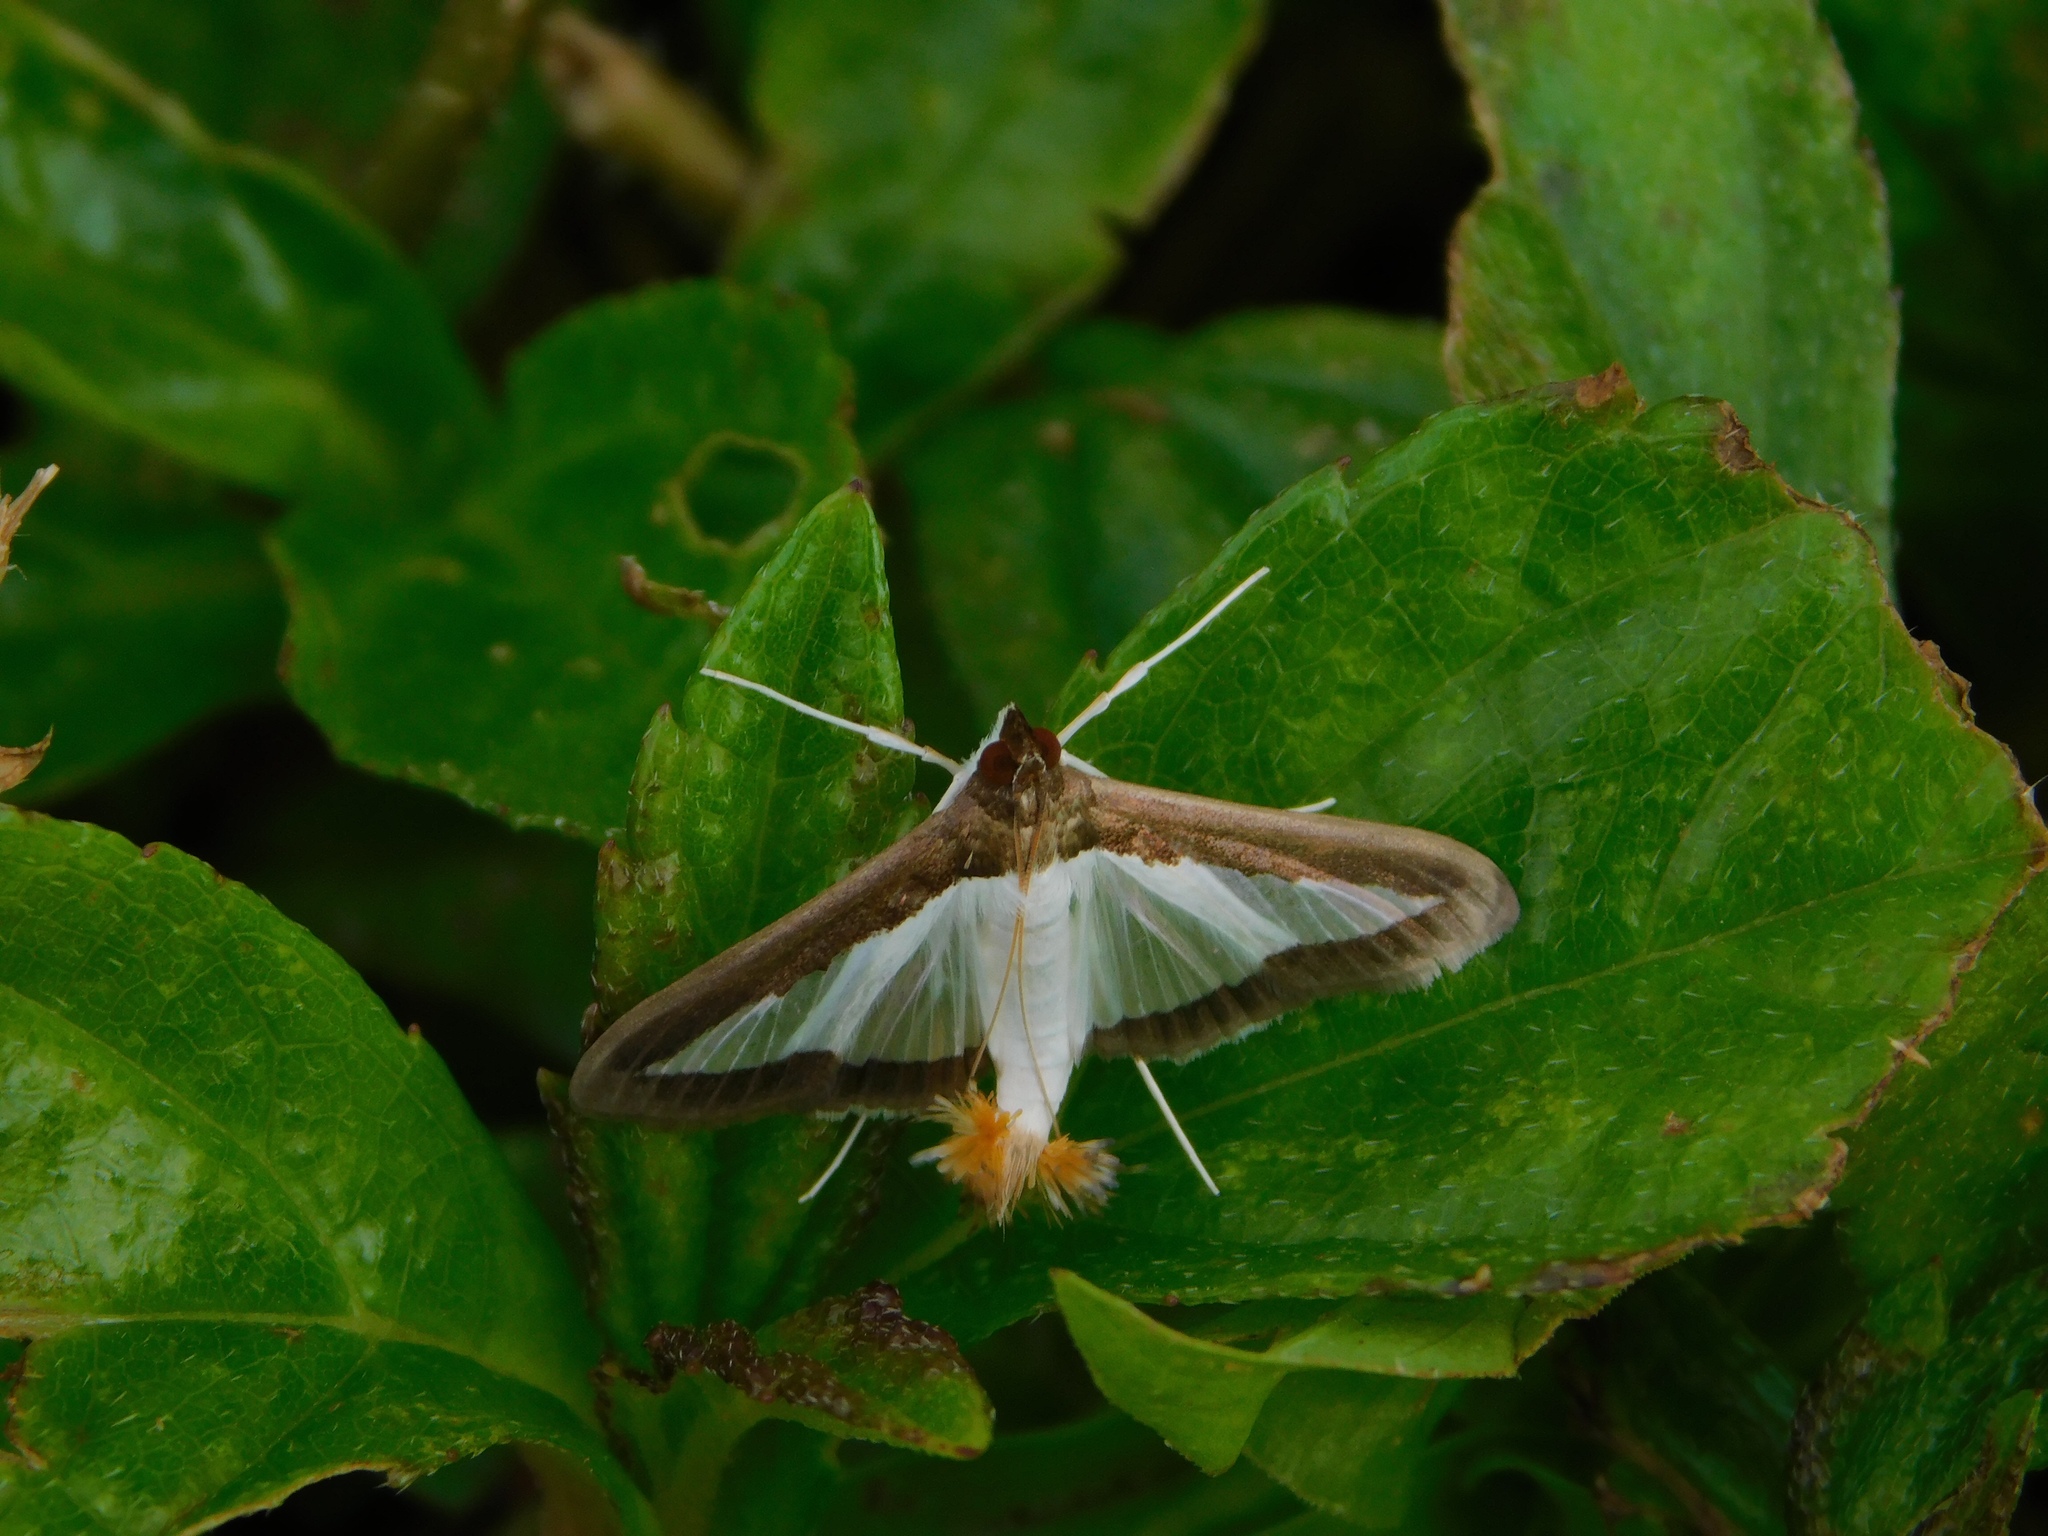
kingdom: Animalia
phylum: Arthropoda
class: Insecta
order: Lepidoptera
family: Crambidae
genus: Diaphania
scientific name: Diaphania hyalinata
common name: Melonworm
